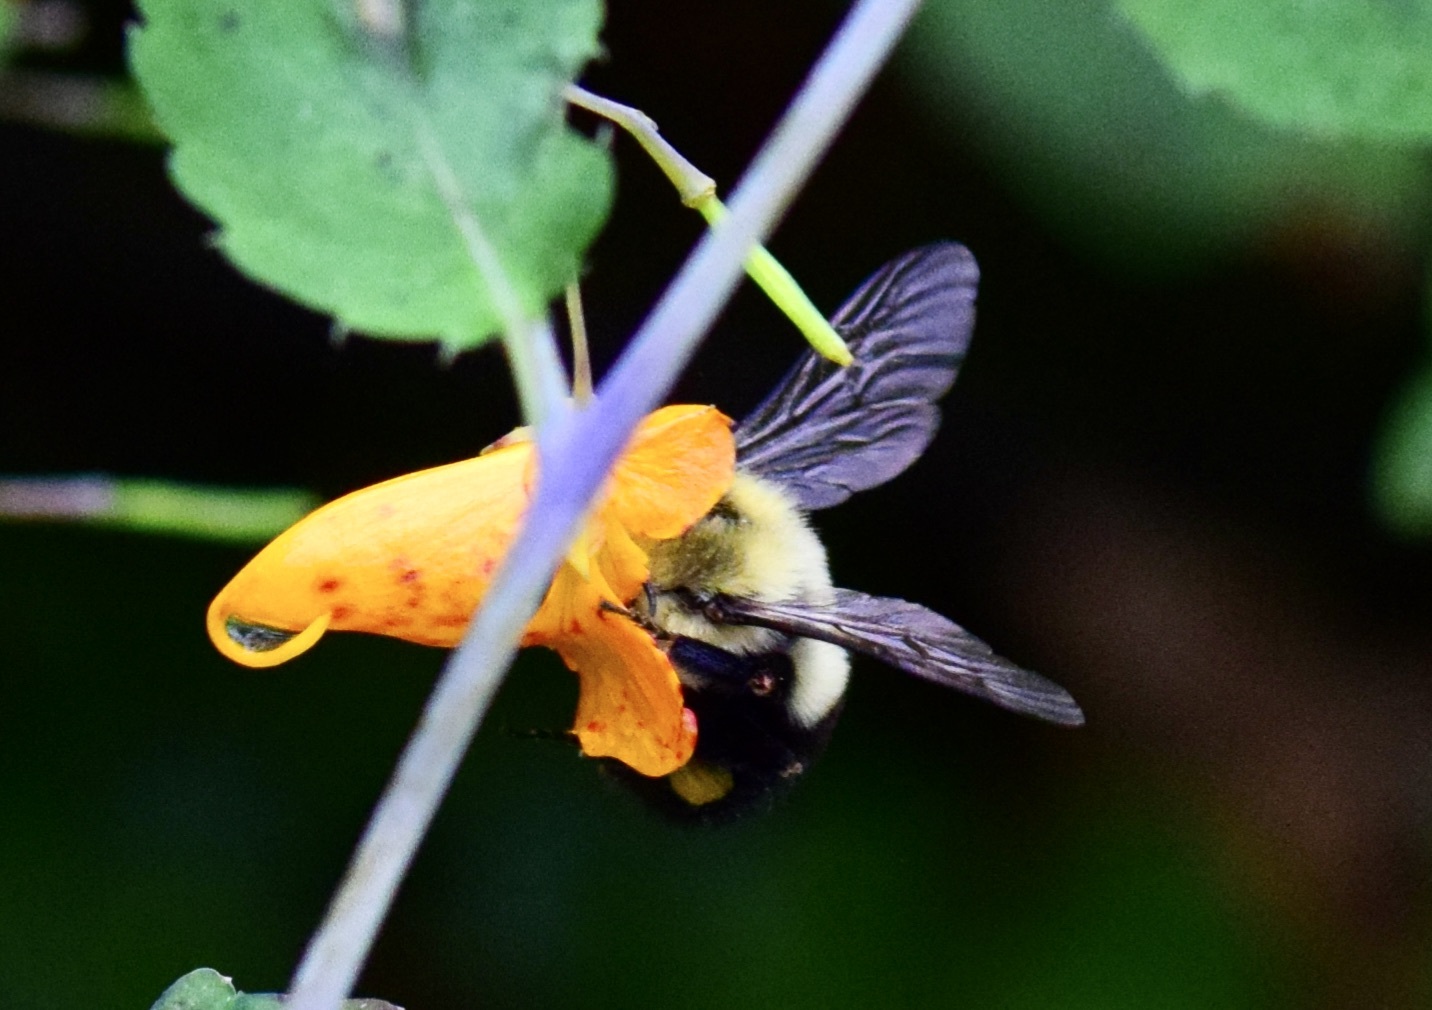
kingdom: Animalia
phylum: Arthropoda
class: Insecta
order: Hymenoptera
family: Apidae
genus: Bombus
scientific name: Bombus impatiens
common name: Common eastern bumble bee
